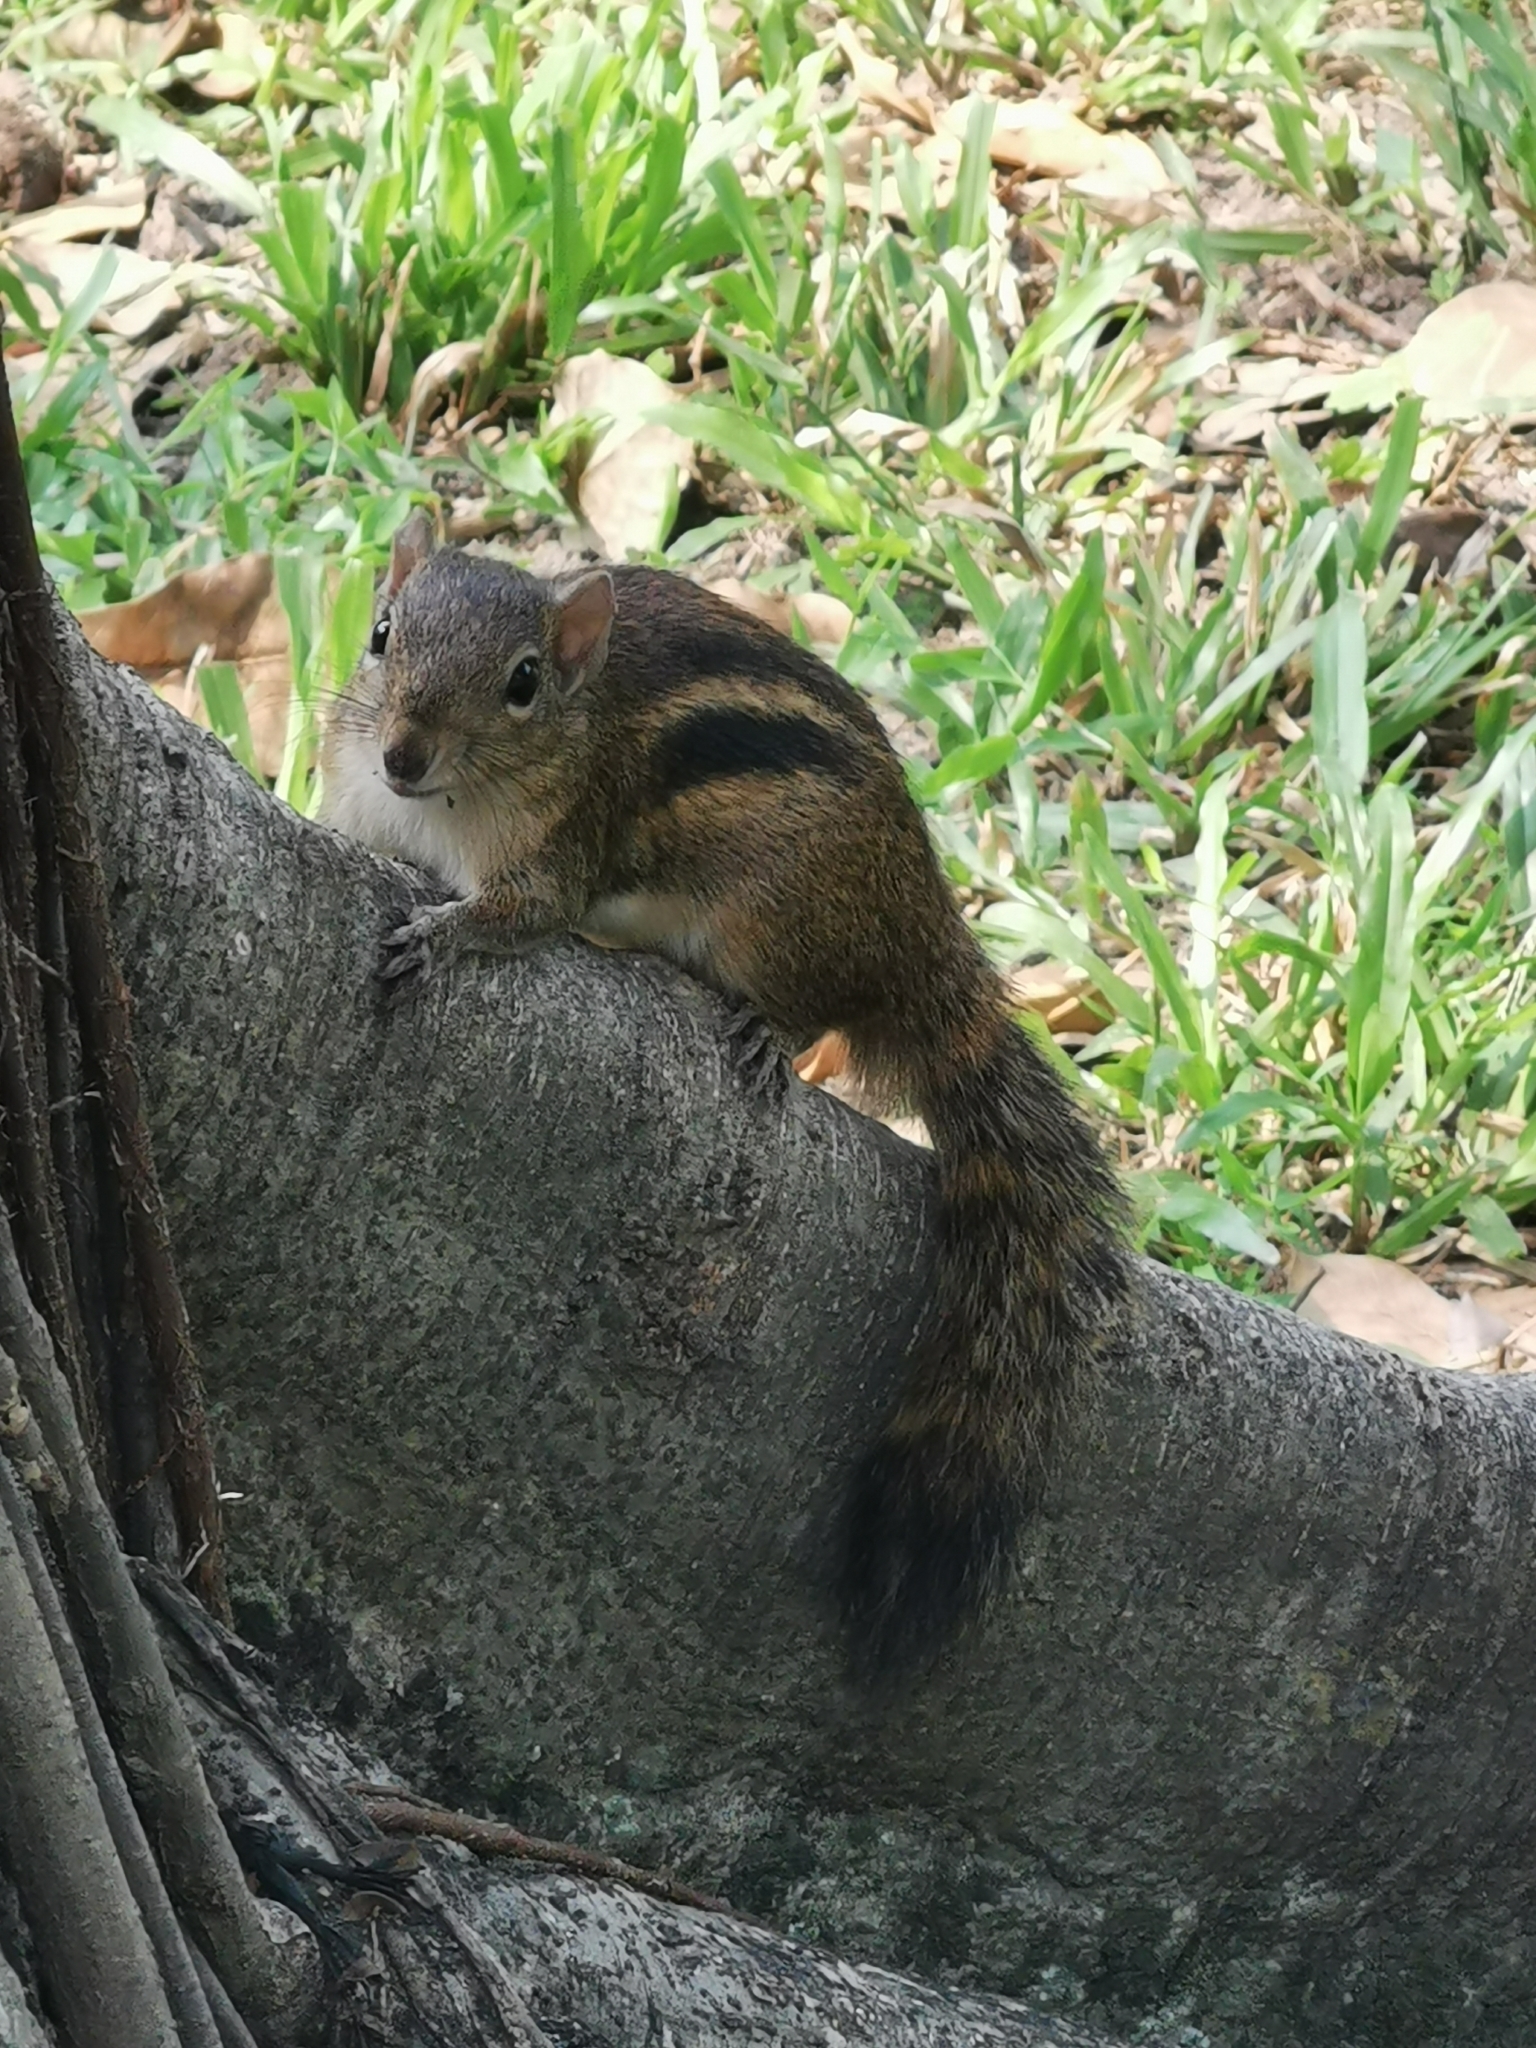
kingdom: Animalia
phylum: Chordata
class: Mammalia
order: Rodentia
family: Sciuridae
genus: Menetes
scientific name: Menetes berdmorei
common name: Indochinese ground squirrel
